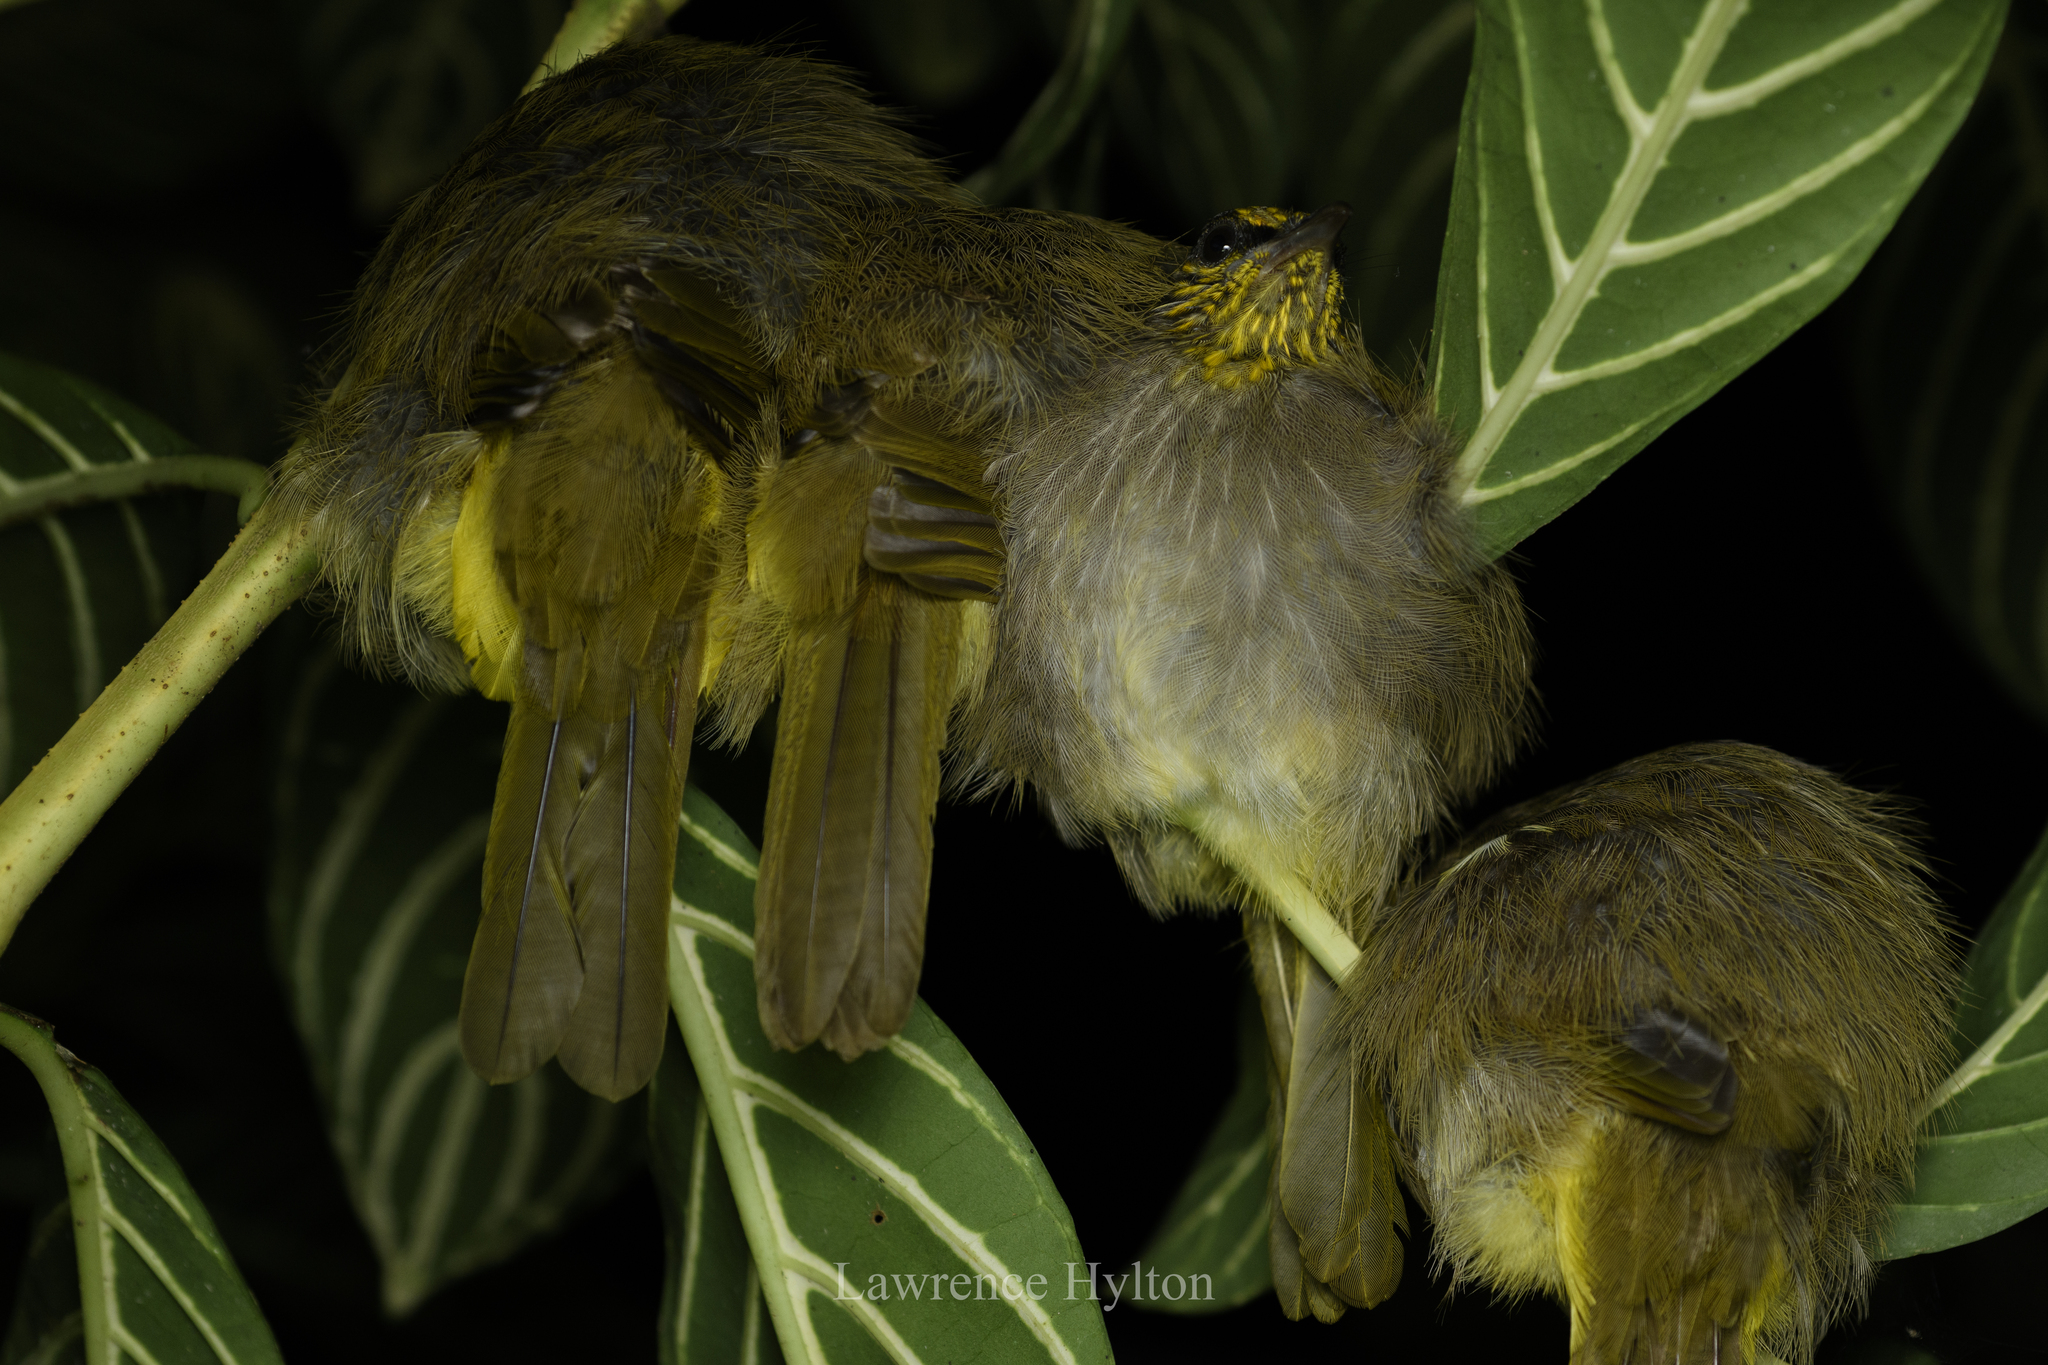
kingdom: Animalia
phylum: Chordata
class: Aves
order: Passeriformes
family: Pycnonotidae
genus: Pycnonotus
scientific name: Pycnonotus finlaysoni
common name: Stripe-throated bulbul
